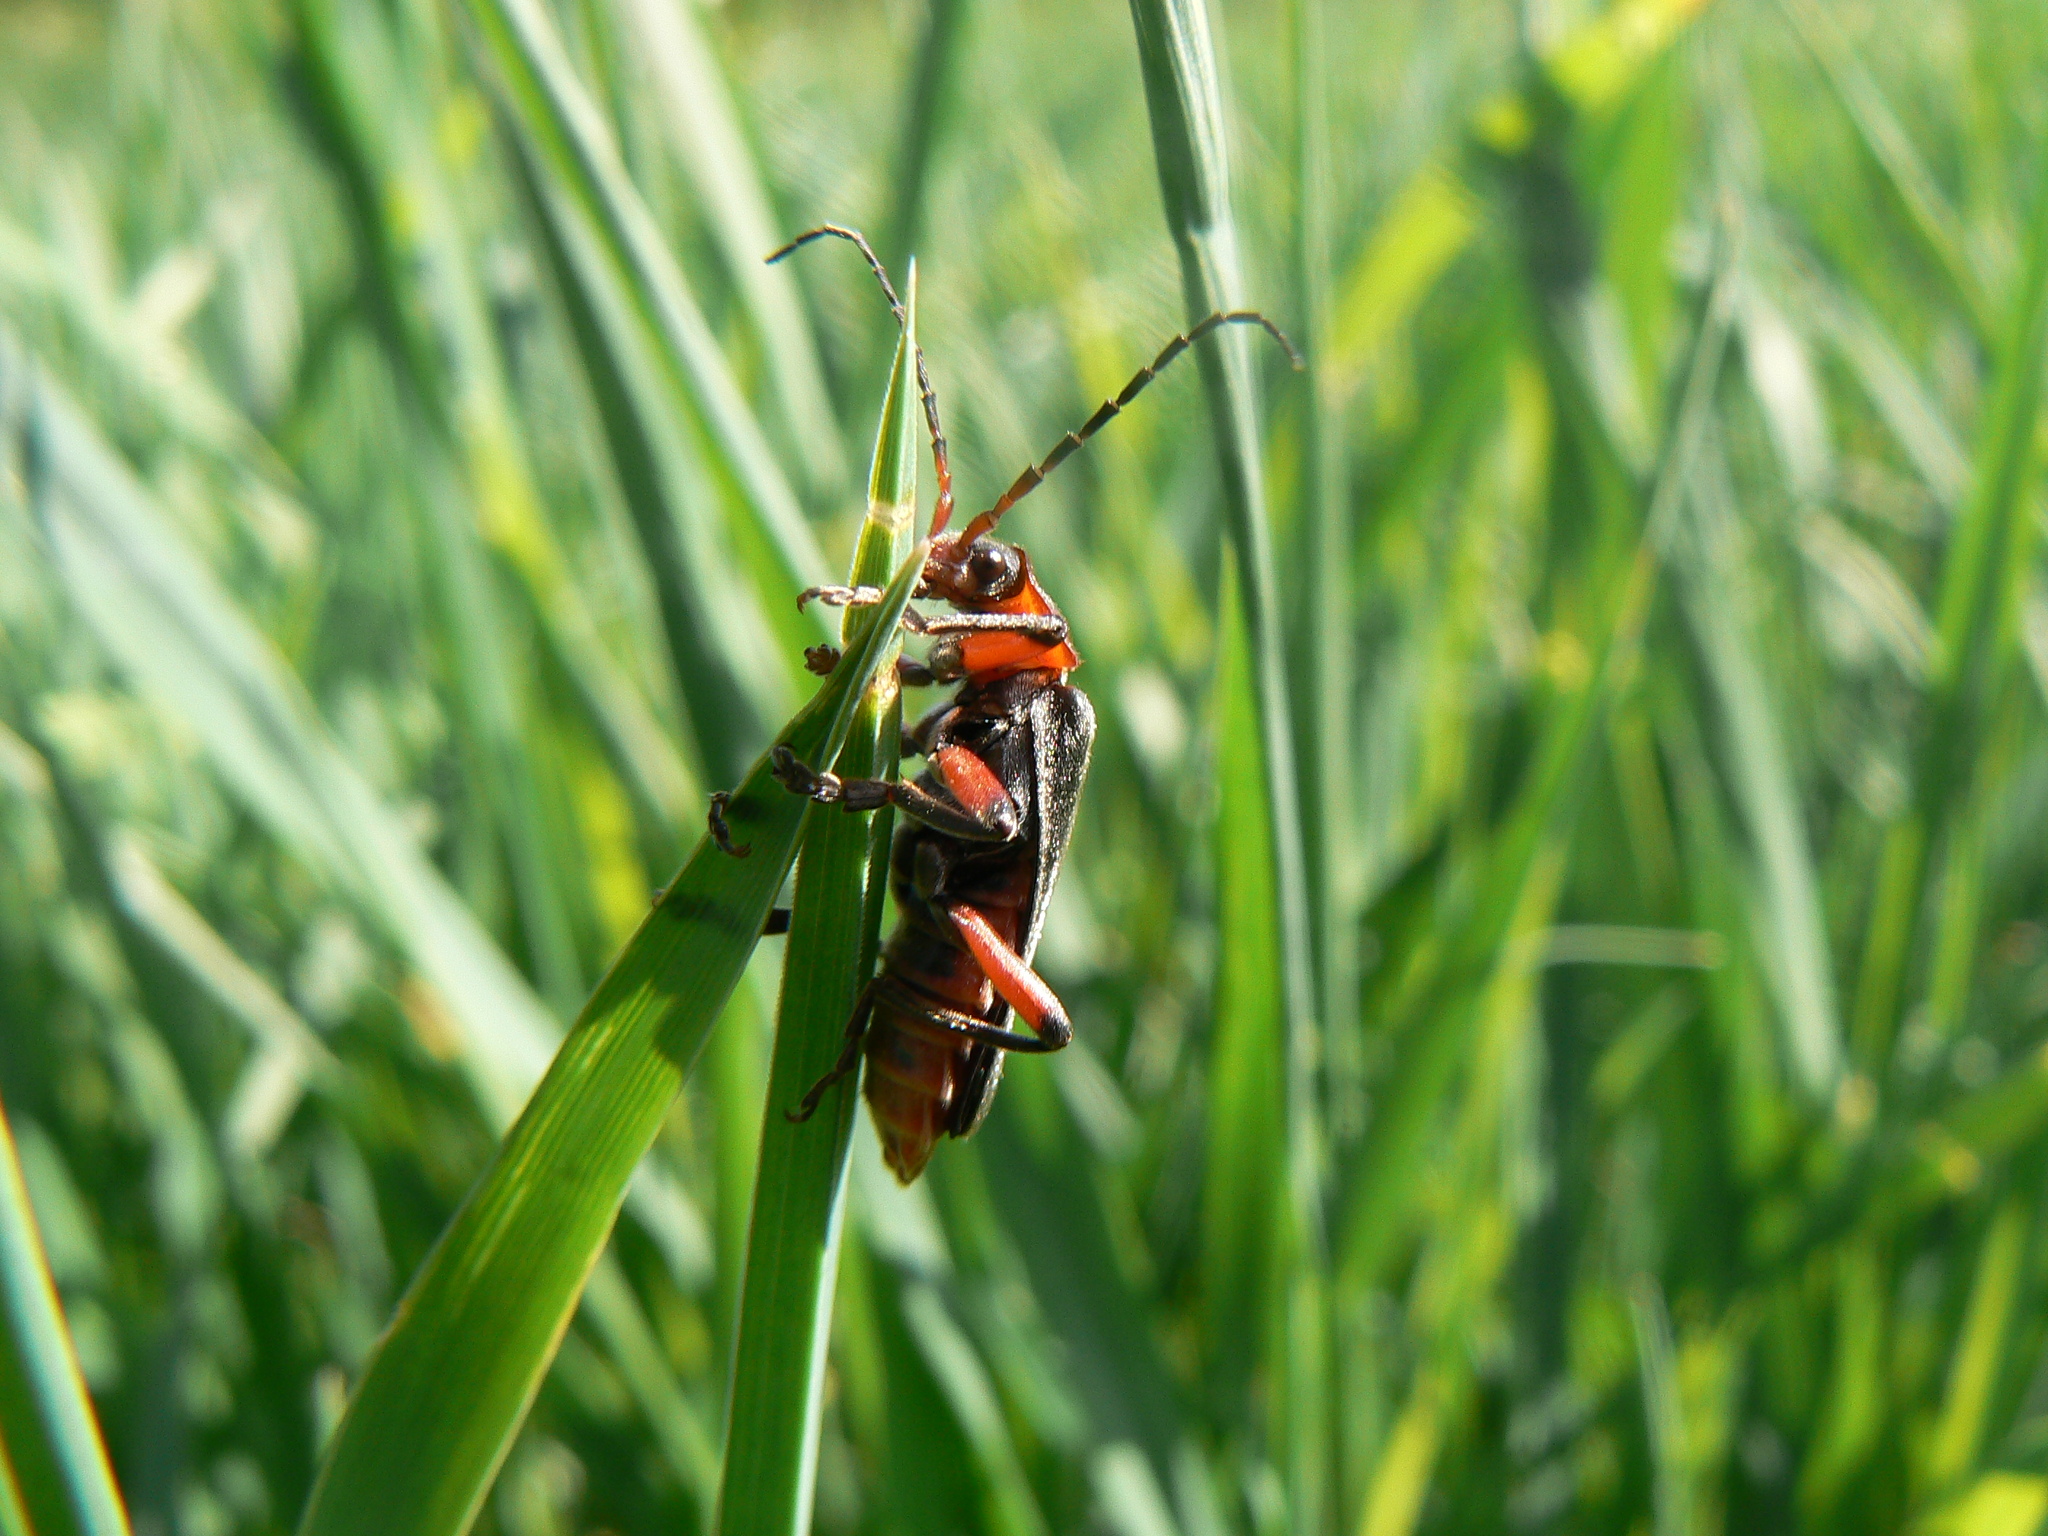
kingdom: Animalia
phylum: Arthropoda
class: Insecta
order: Coleoptera
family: Cantharidae
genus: Cantharis
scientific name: Cantharis rustica
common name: Soldier beetle
